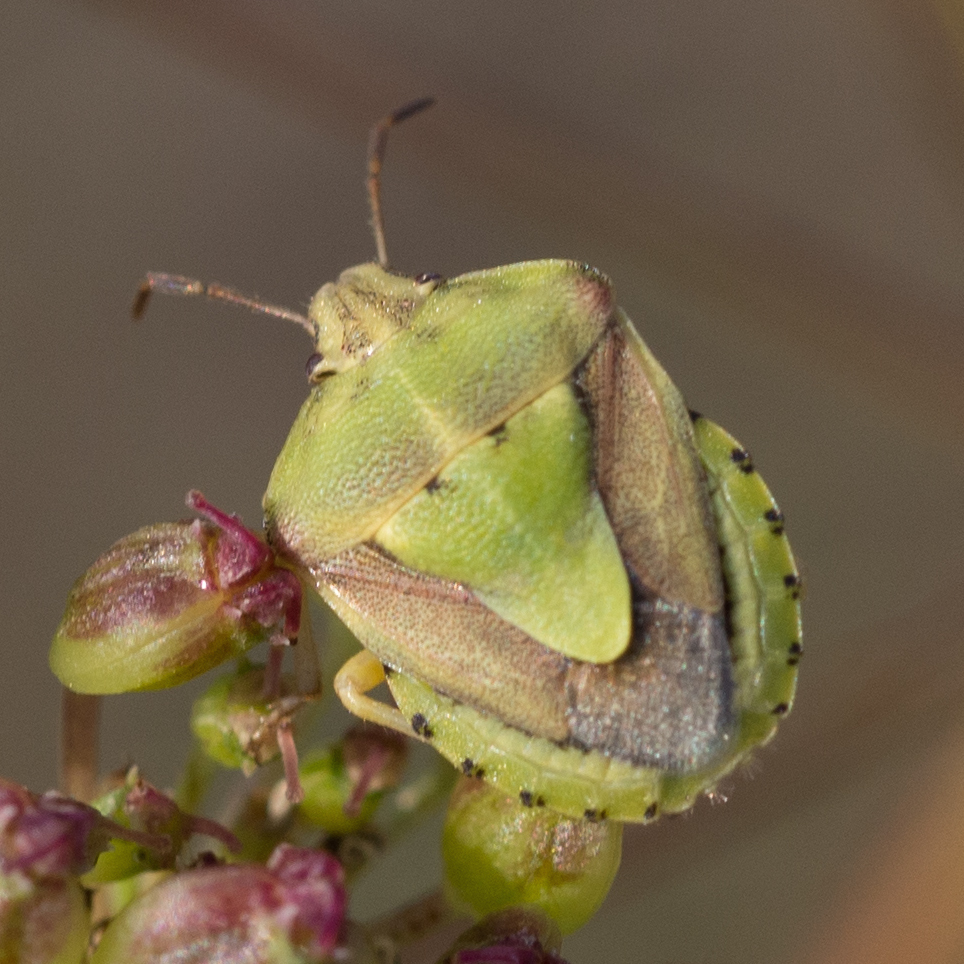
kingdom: Animalia
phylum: Arthropoda
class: Insecta
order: Hemiptera
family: Pentatomidae
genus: Antheminia
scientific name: Antheminia lunulata
